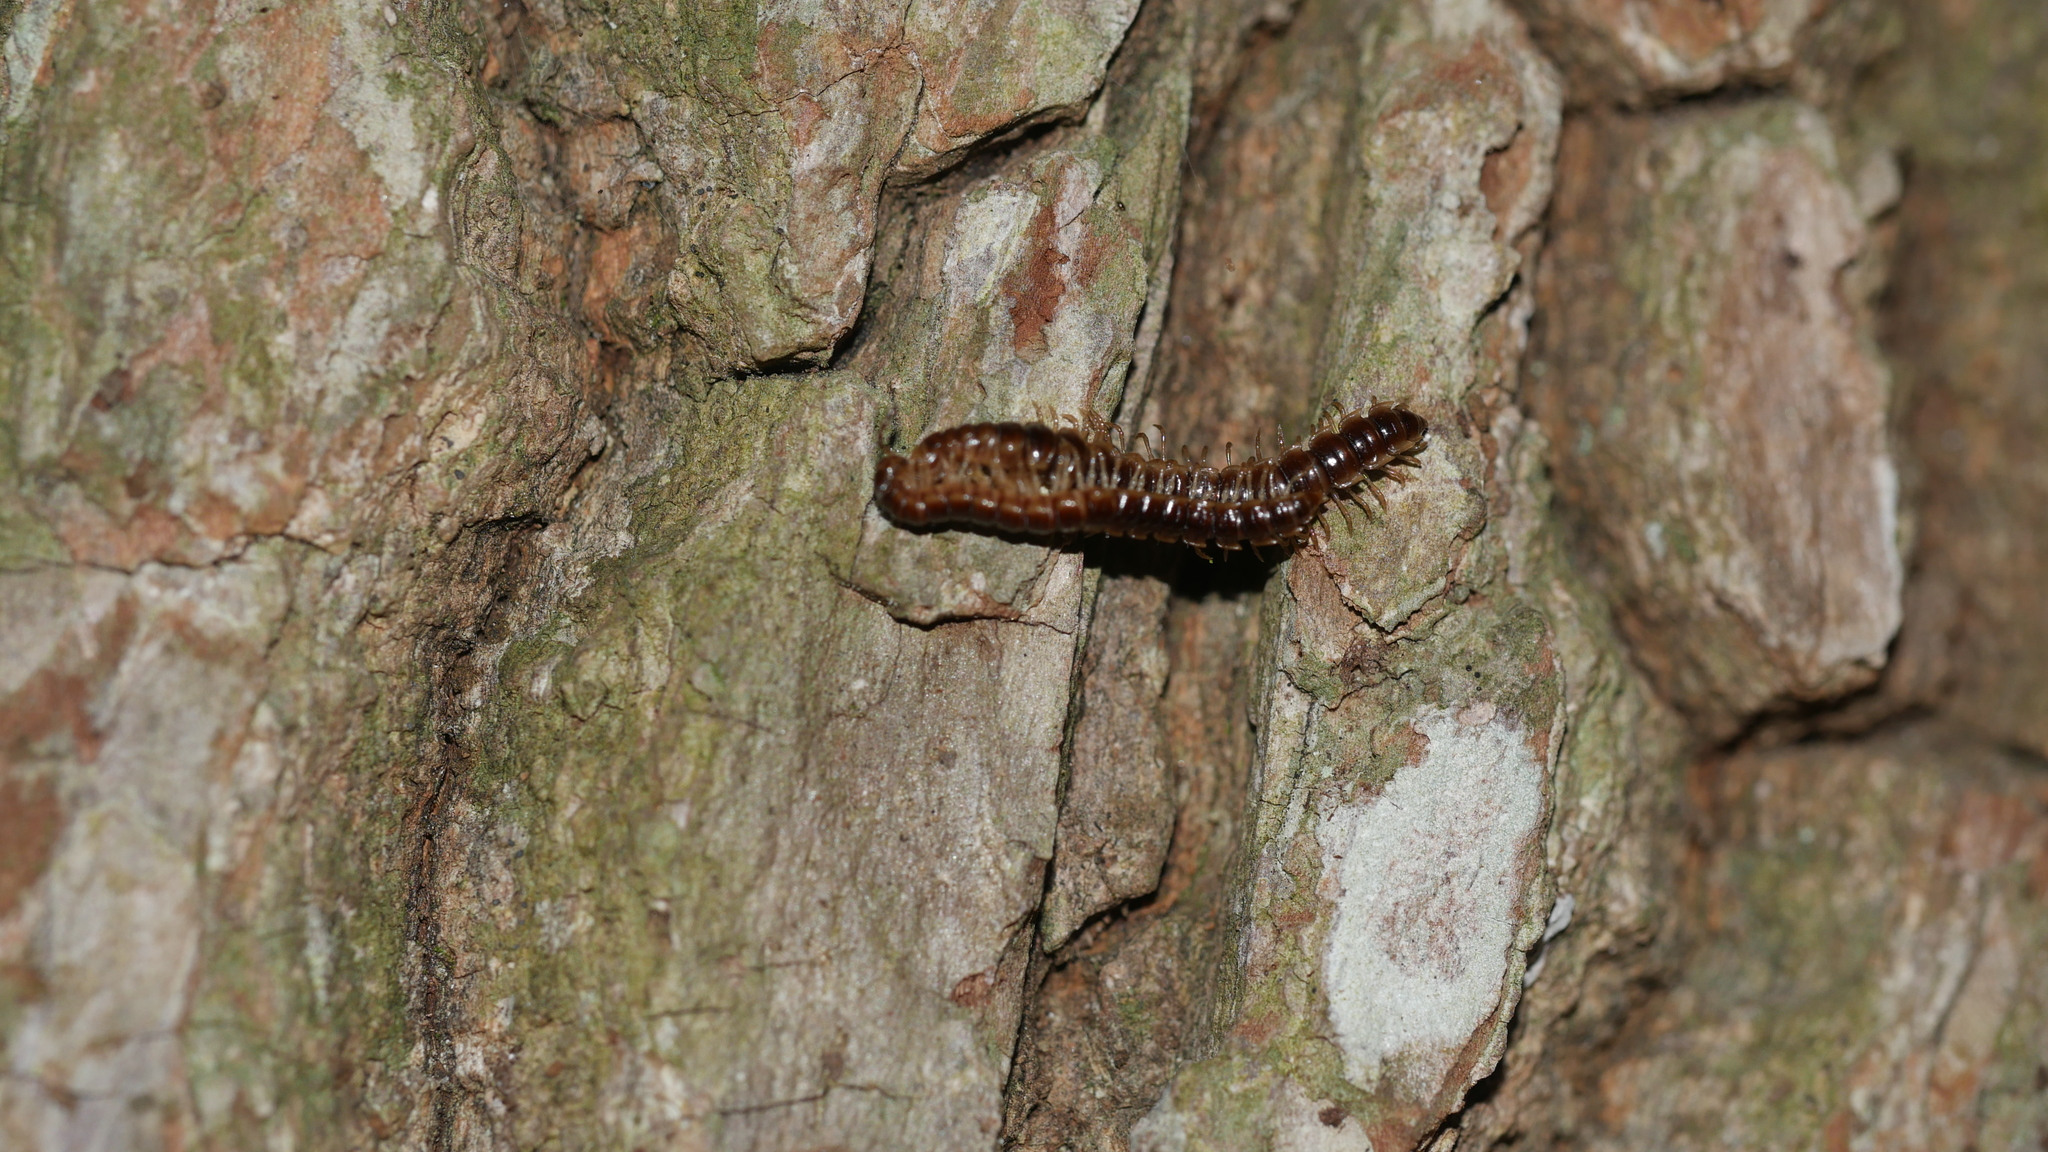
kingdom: Animalia
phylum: Arthropoda
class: Diplopoda
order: Polydesmida
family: Paradoxosomatidae
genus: Oxidus
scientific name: Oxidus gracilis
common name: Greenhouse millipede
